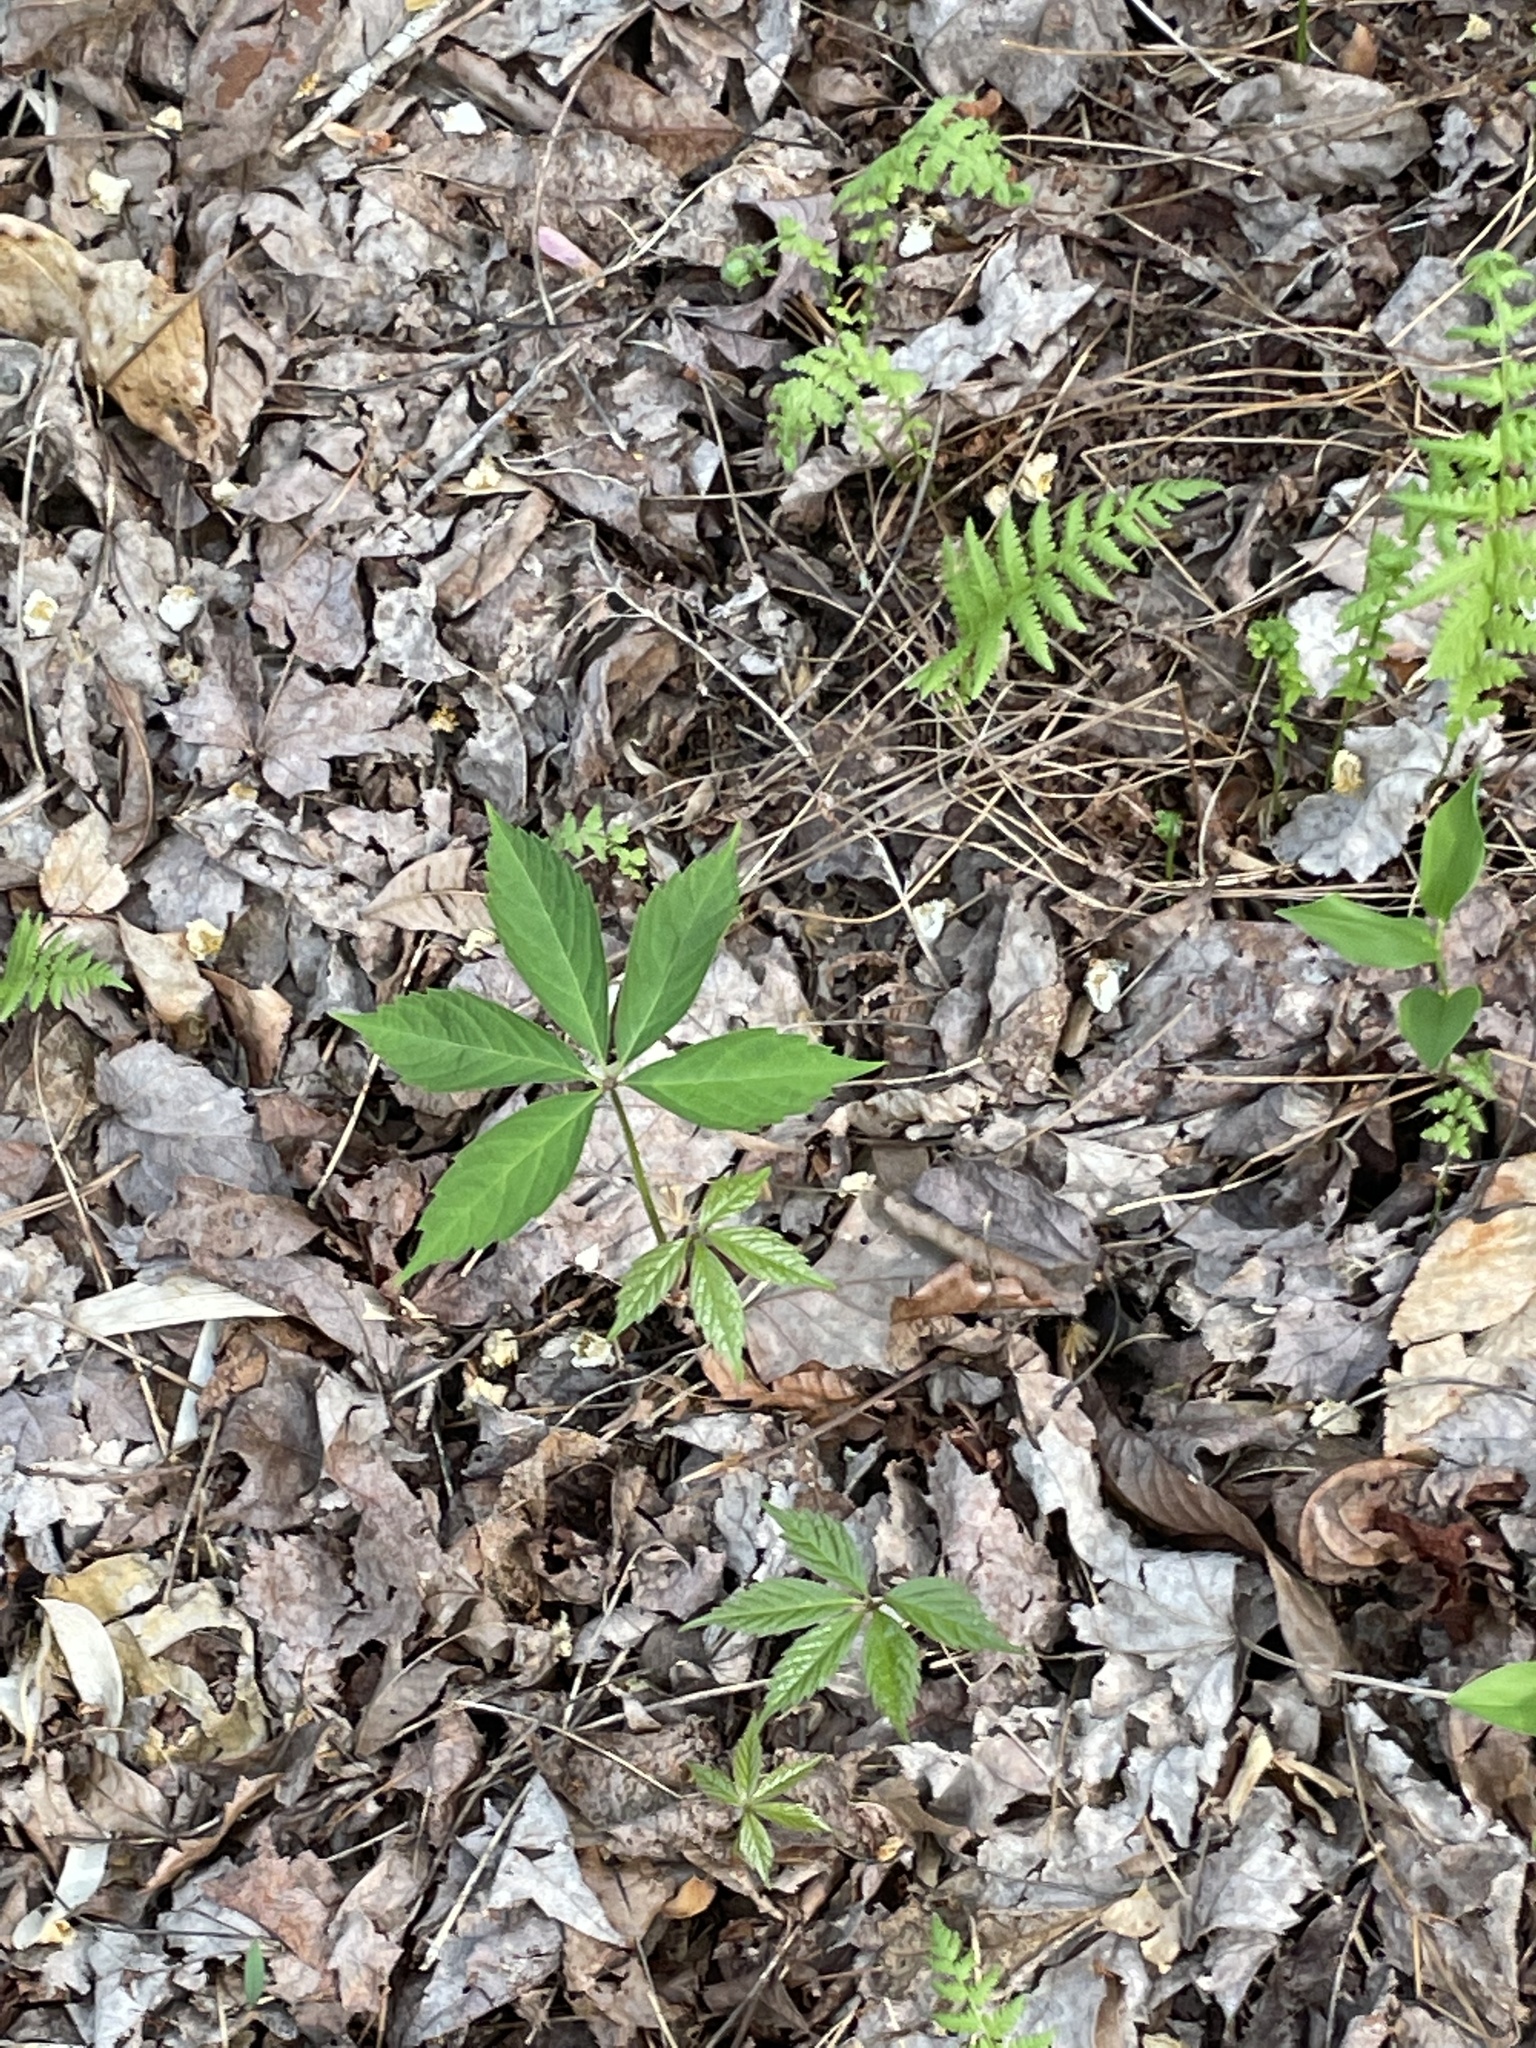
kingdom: Plantae
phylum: Tracheophyta
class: Magnoliopsida
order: Vitales
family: Vitaceae
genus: Parthenocissus
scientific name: Parthenocissus quinquefolia
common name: Virginia-creeper
